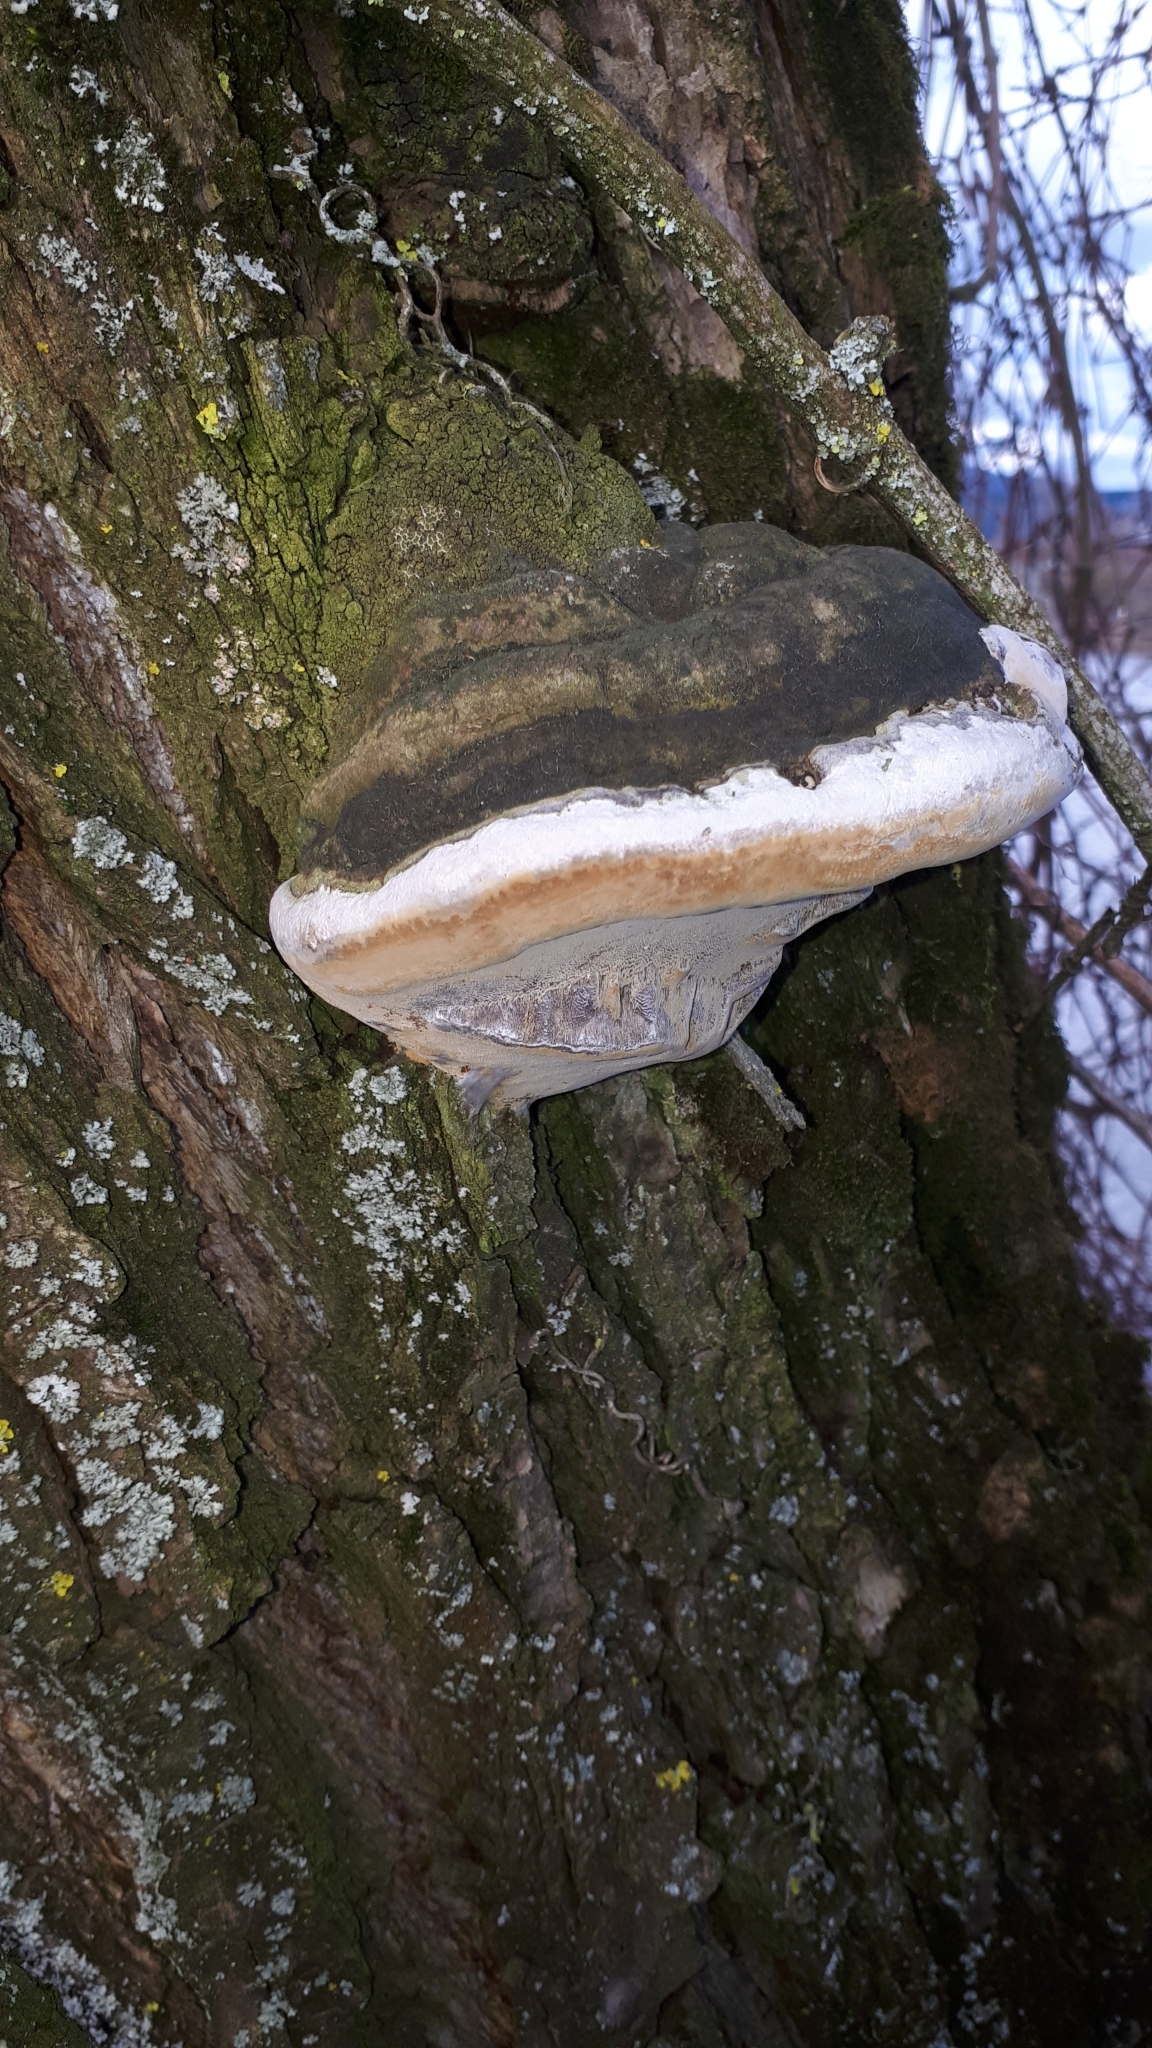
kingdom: Fungi
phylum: Basidiomycota
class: Agaricomycetes
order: Hymenochaetales
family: Hymenochaetaceae
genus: Phellinus
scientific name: Phellinus igniarius
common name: Willow bracket
